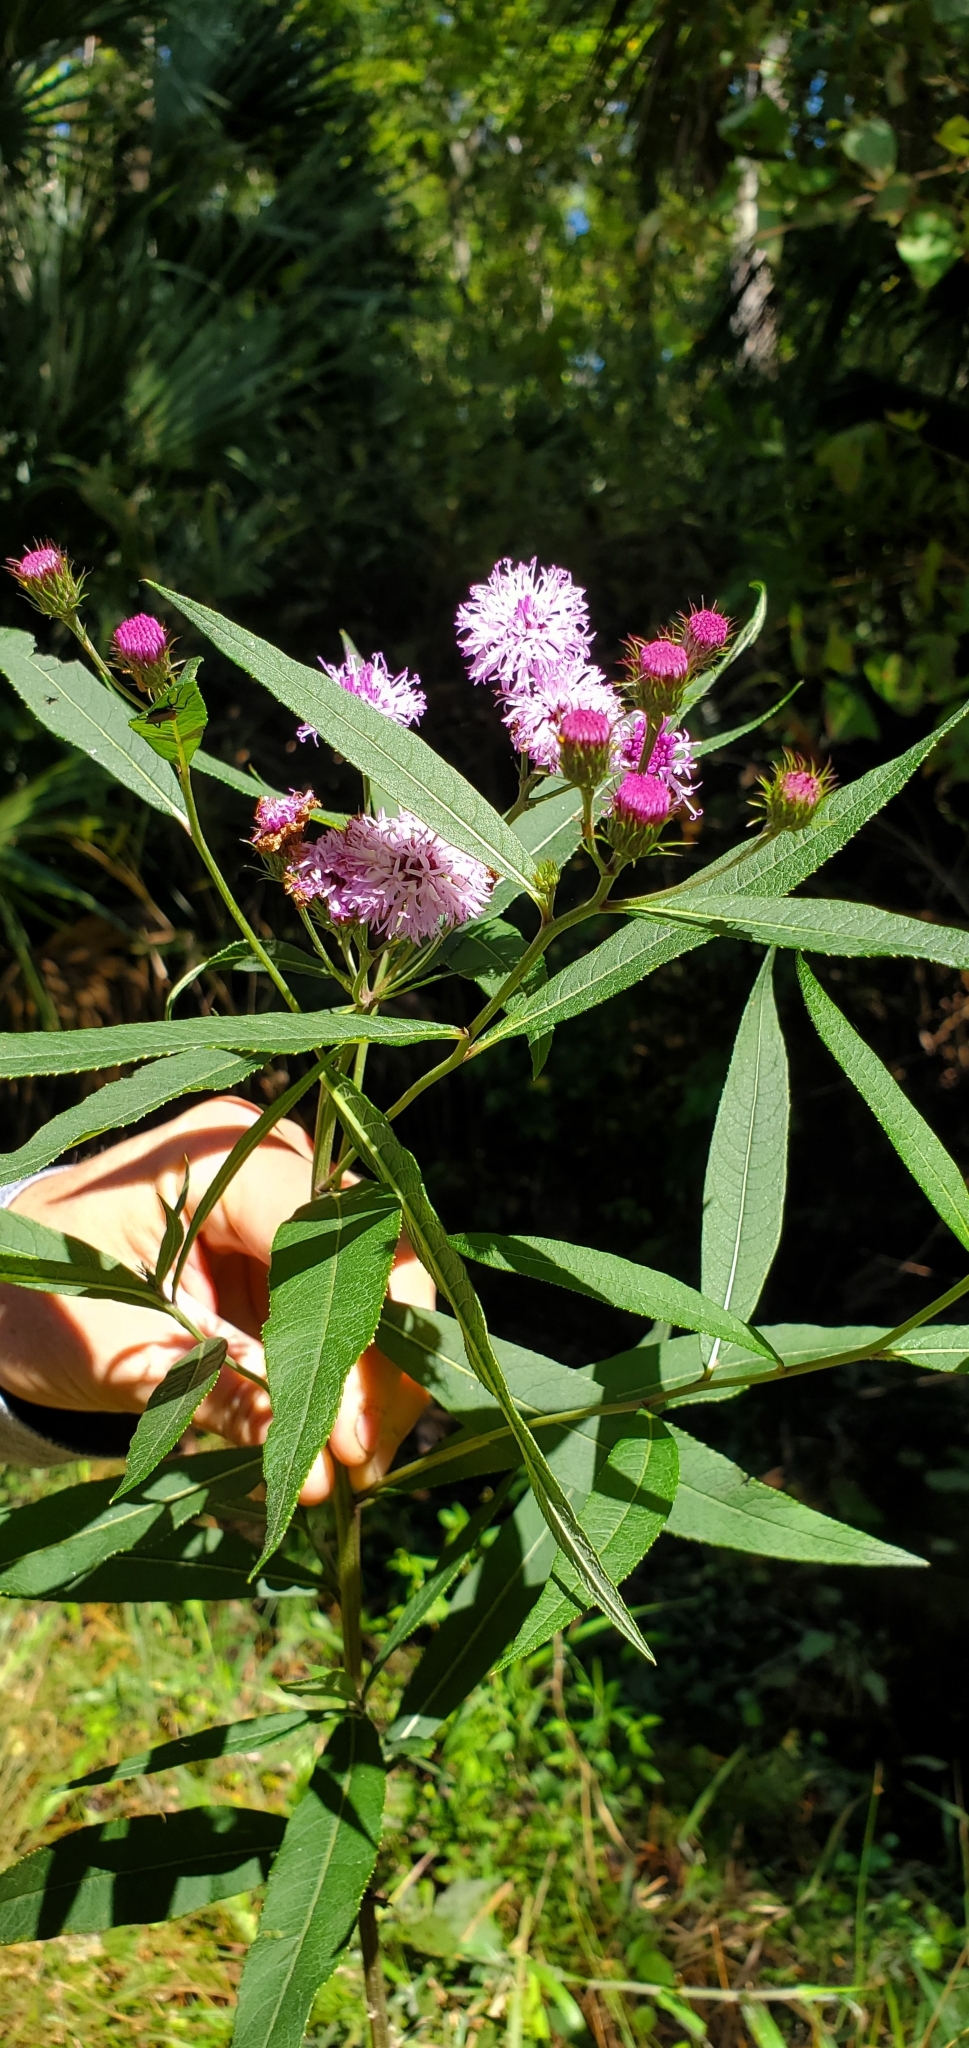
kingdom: Plantae
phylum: Tracheophyta
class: Magnoliopsida
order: Asterales
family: Asteraceae
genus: Vernonia
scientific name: Vernonia noveboracensis
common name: New york ironweed
